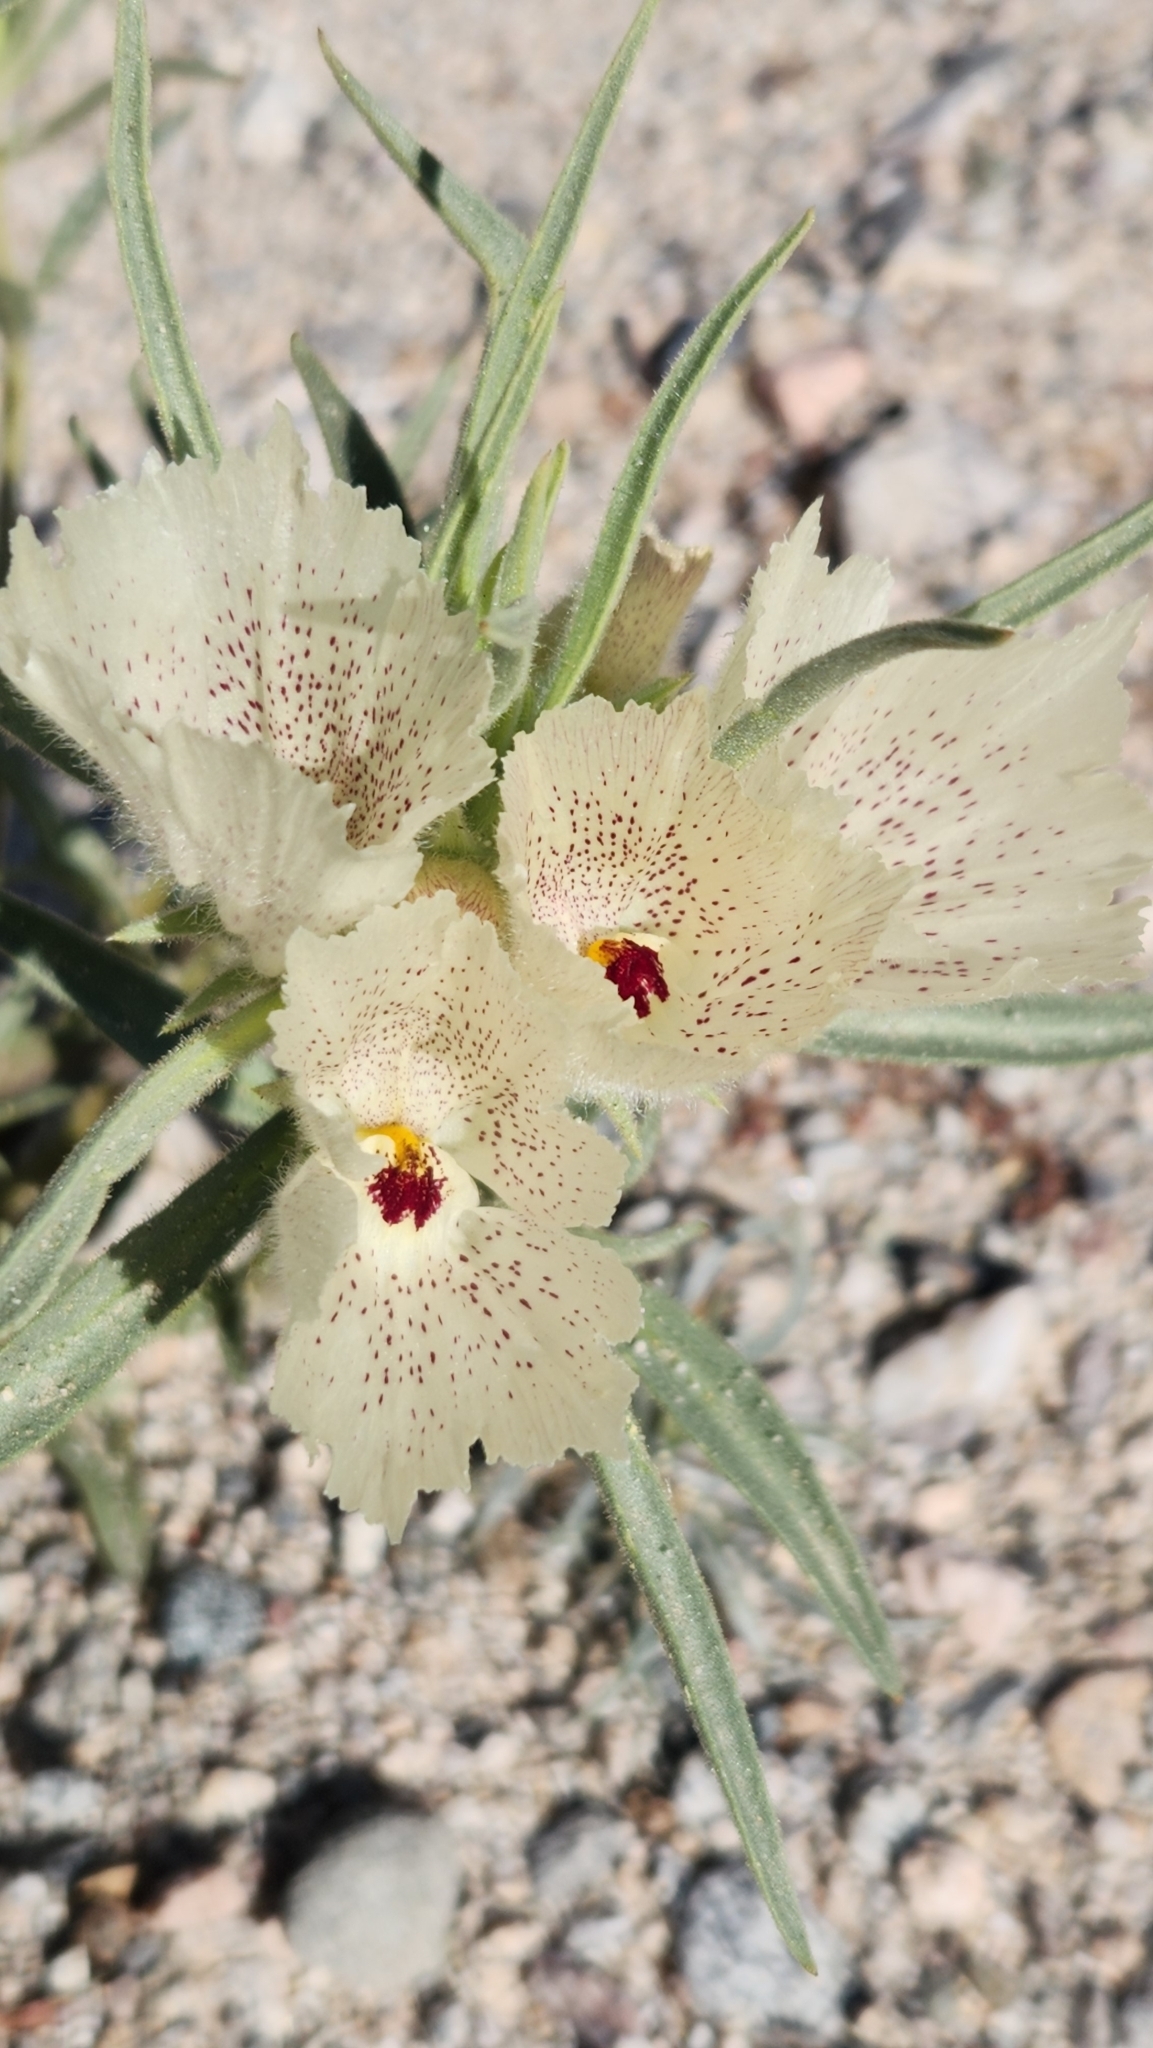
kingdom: Plantae
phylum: Tracheophyta
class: Magnoliopsida
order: Lamiales
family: Plantaginaceae
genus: Mohavea
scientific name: Mohavea confertiflora
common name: Ghost flower
